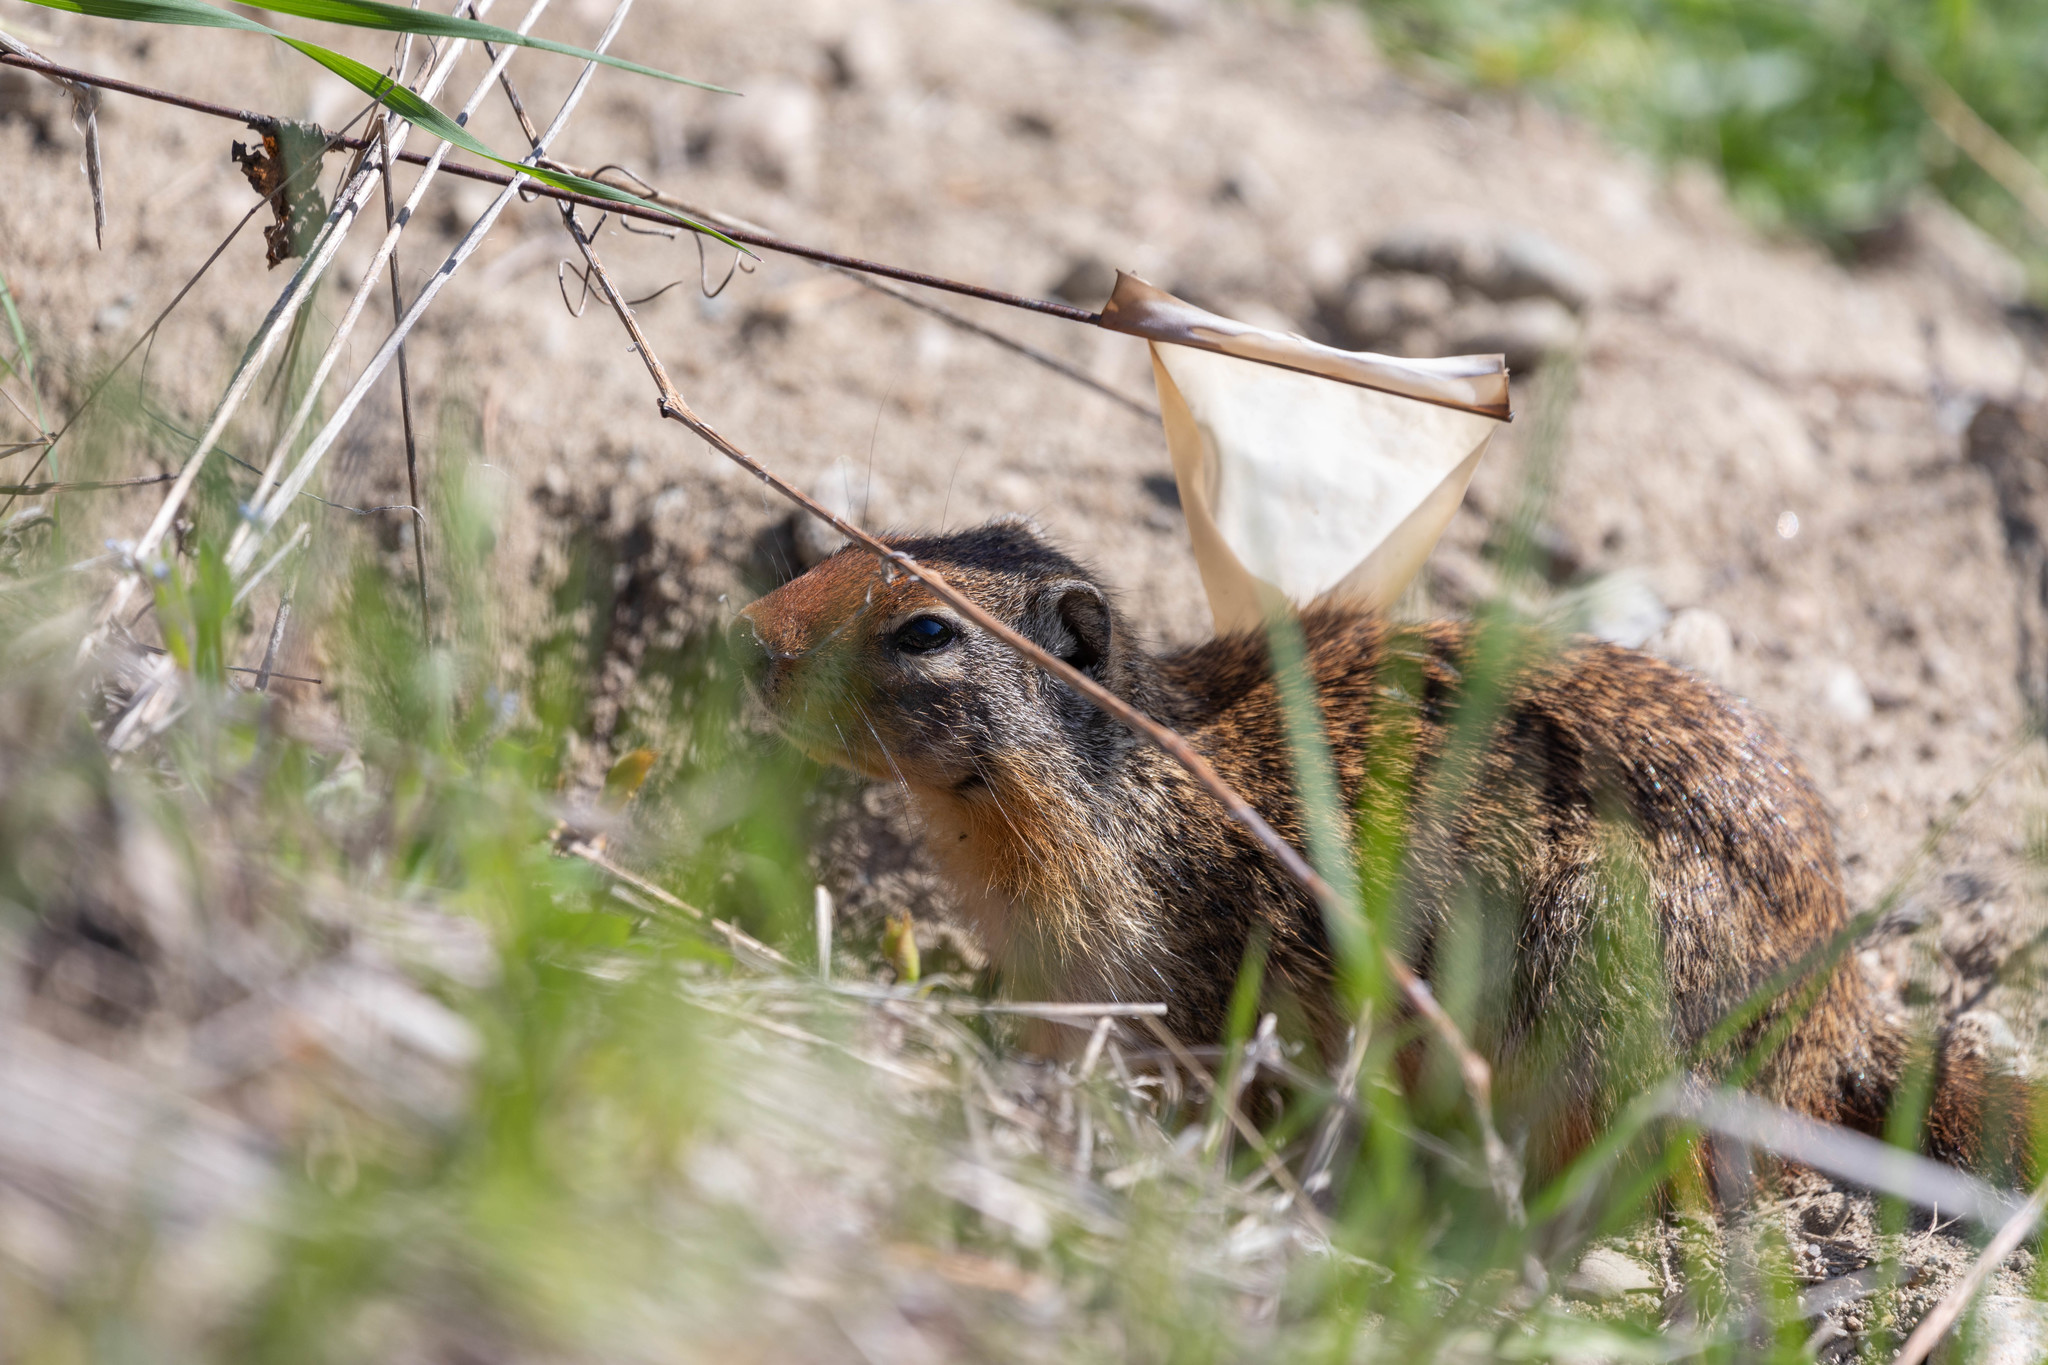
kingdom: Animalia
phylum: Chordata
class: Mammalia
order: Rodentia
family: Sciuridae
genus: Urocitellus
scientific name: Urocitellus columbianus
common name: Columbian ground squirrel
